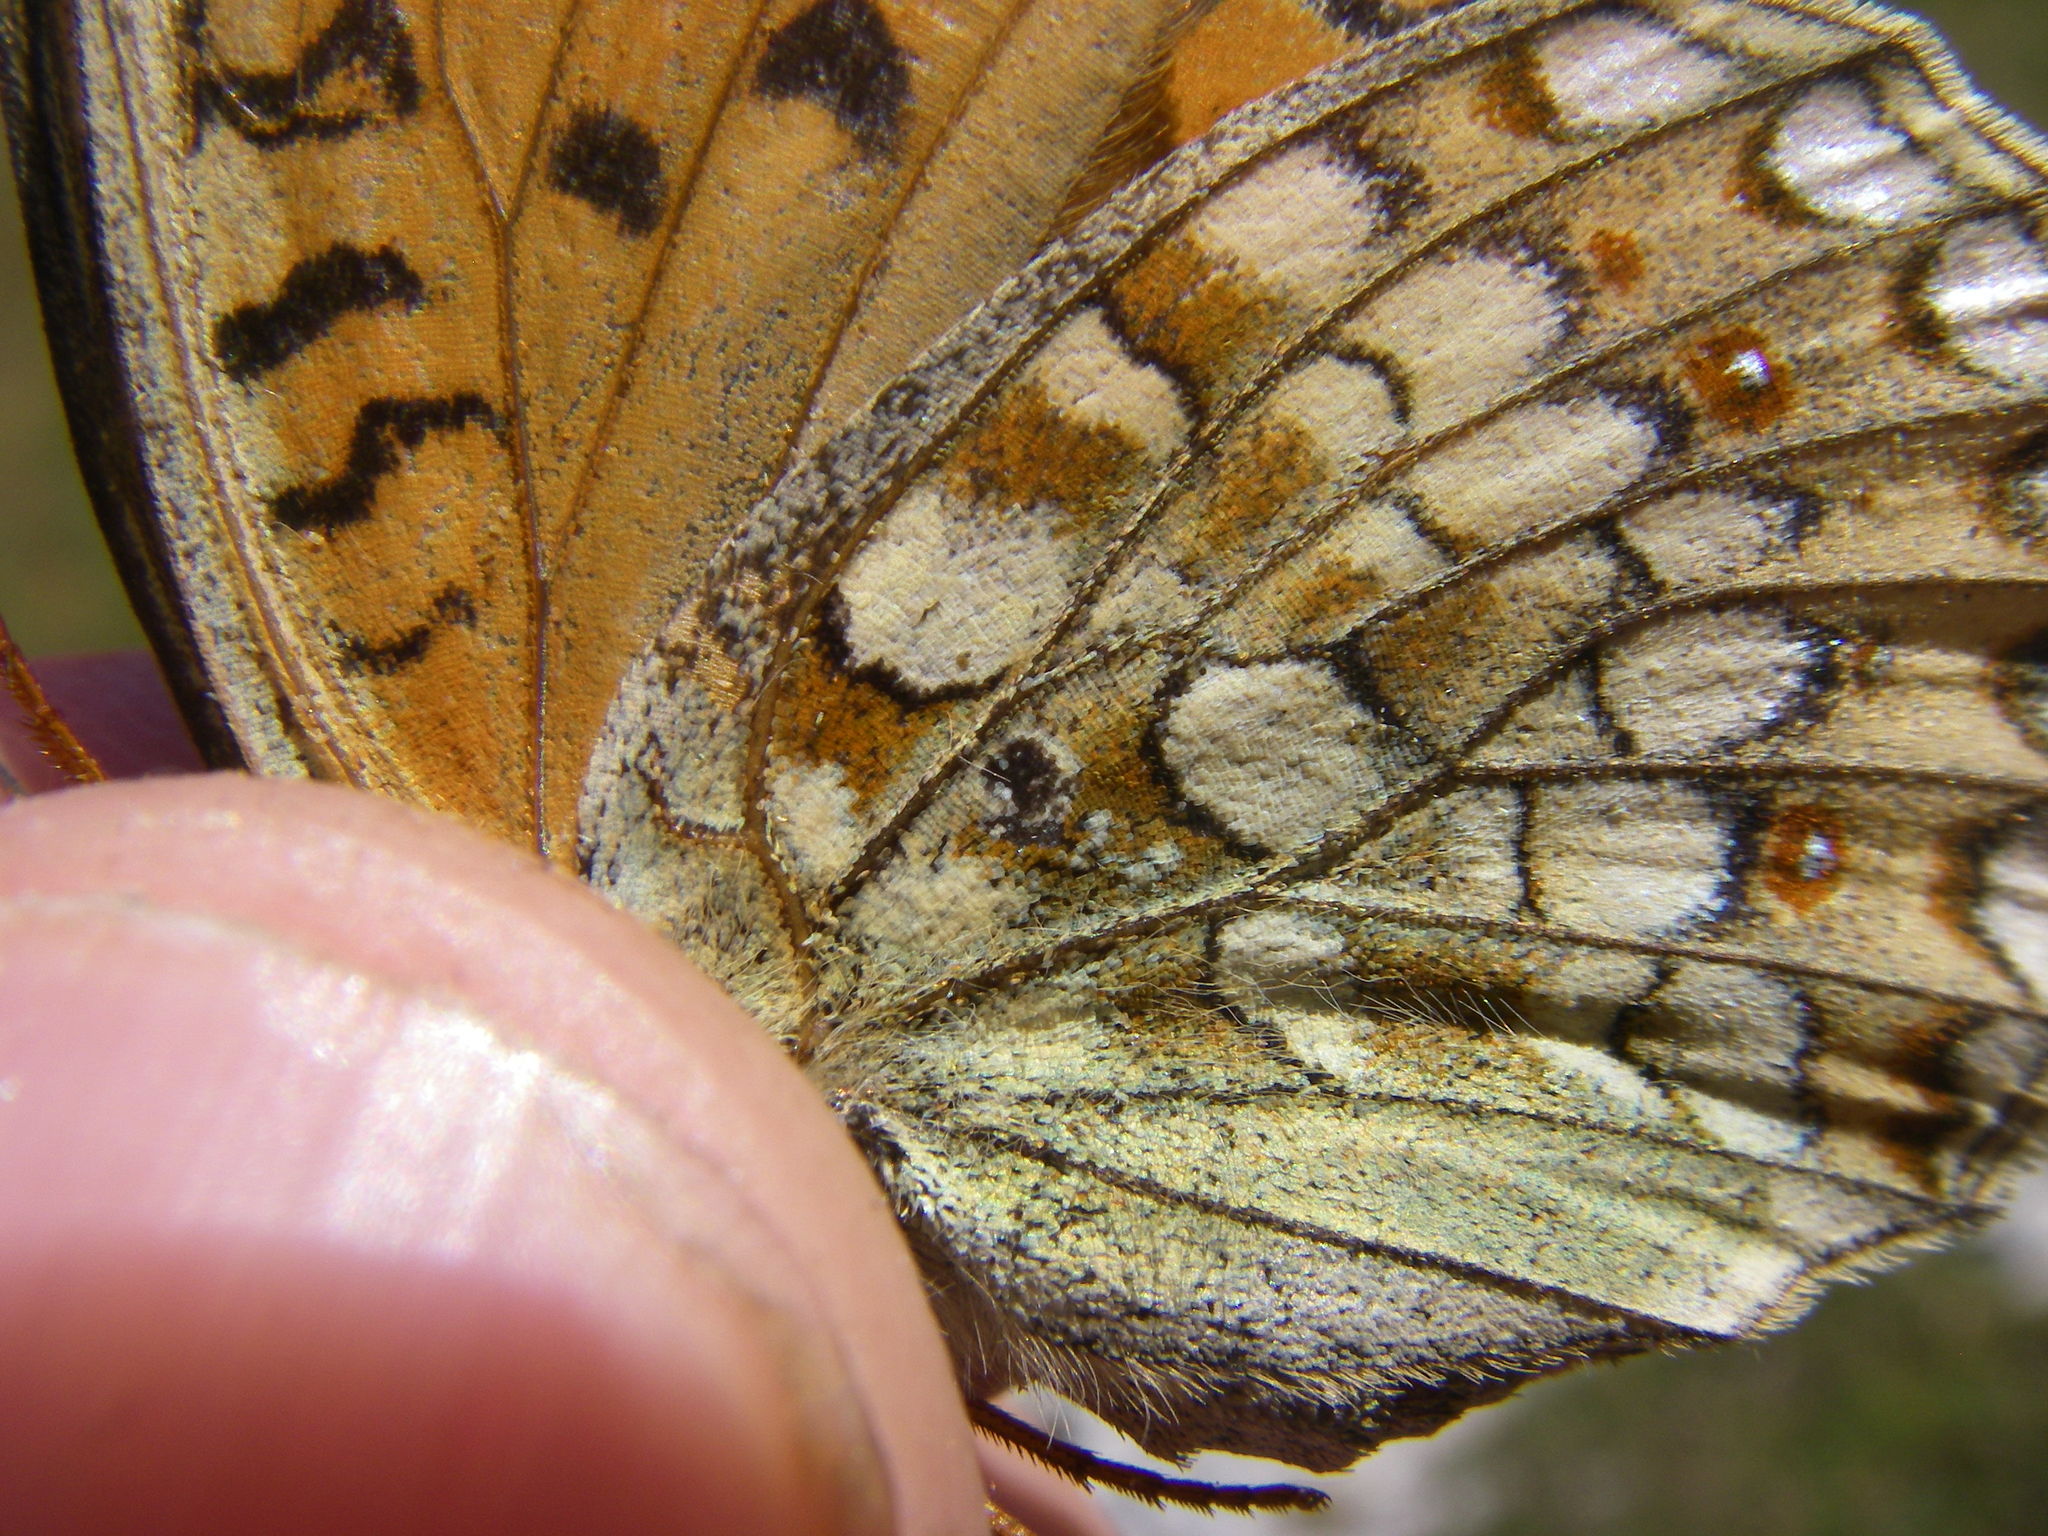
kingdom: Animalia
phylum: Arthropoda
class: Insecta
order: Lepidoptera
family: Nymphalidae
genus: Fabriciana
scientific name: Fabriciana niobe
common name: Niobe fritillary
